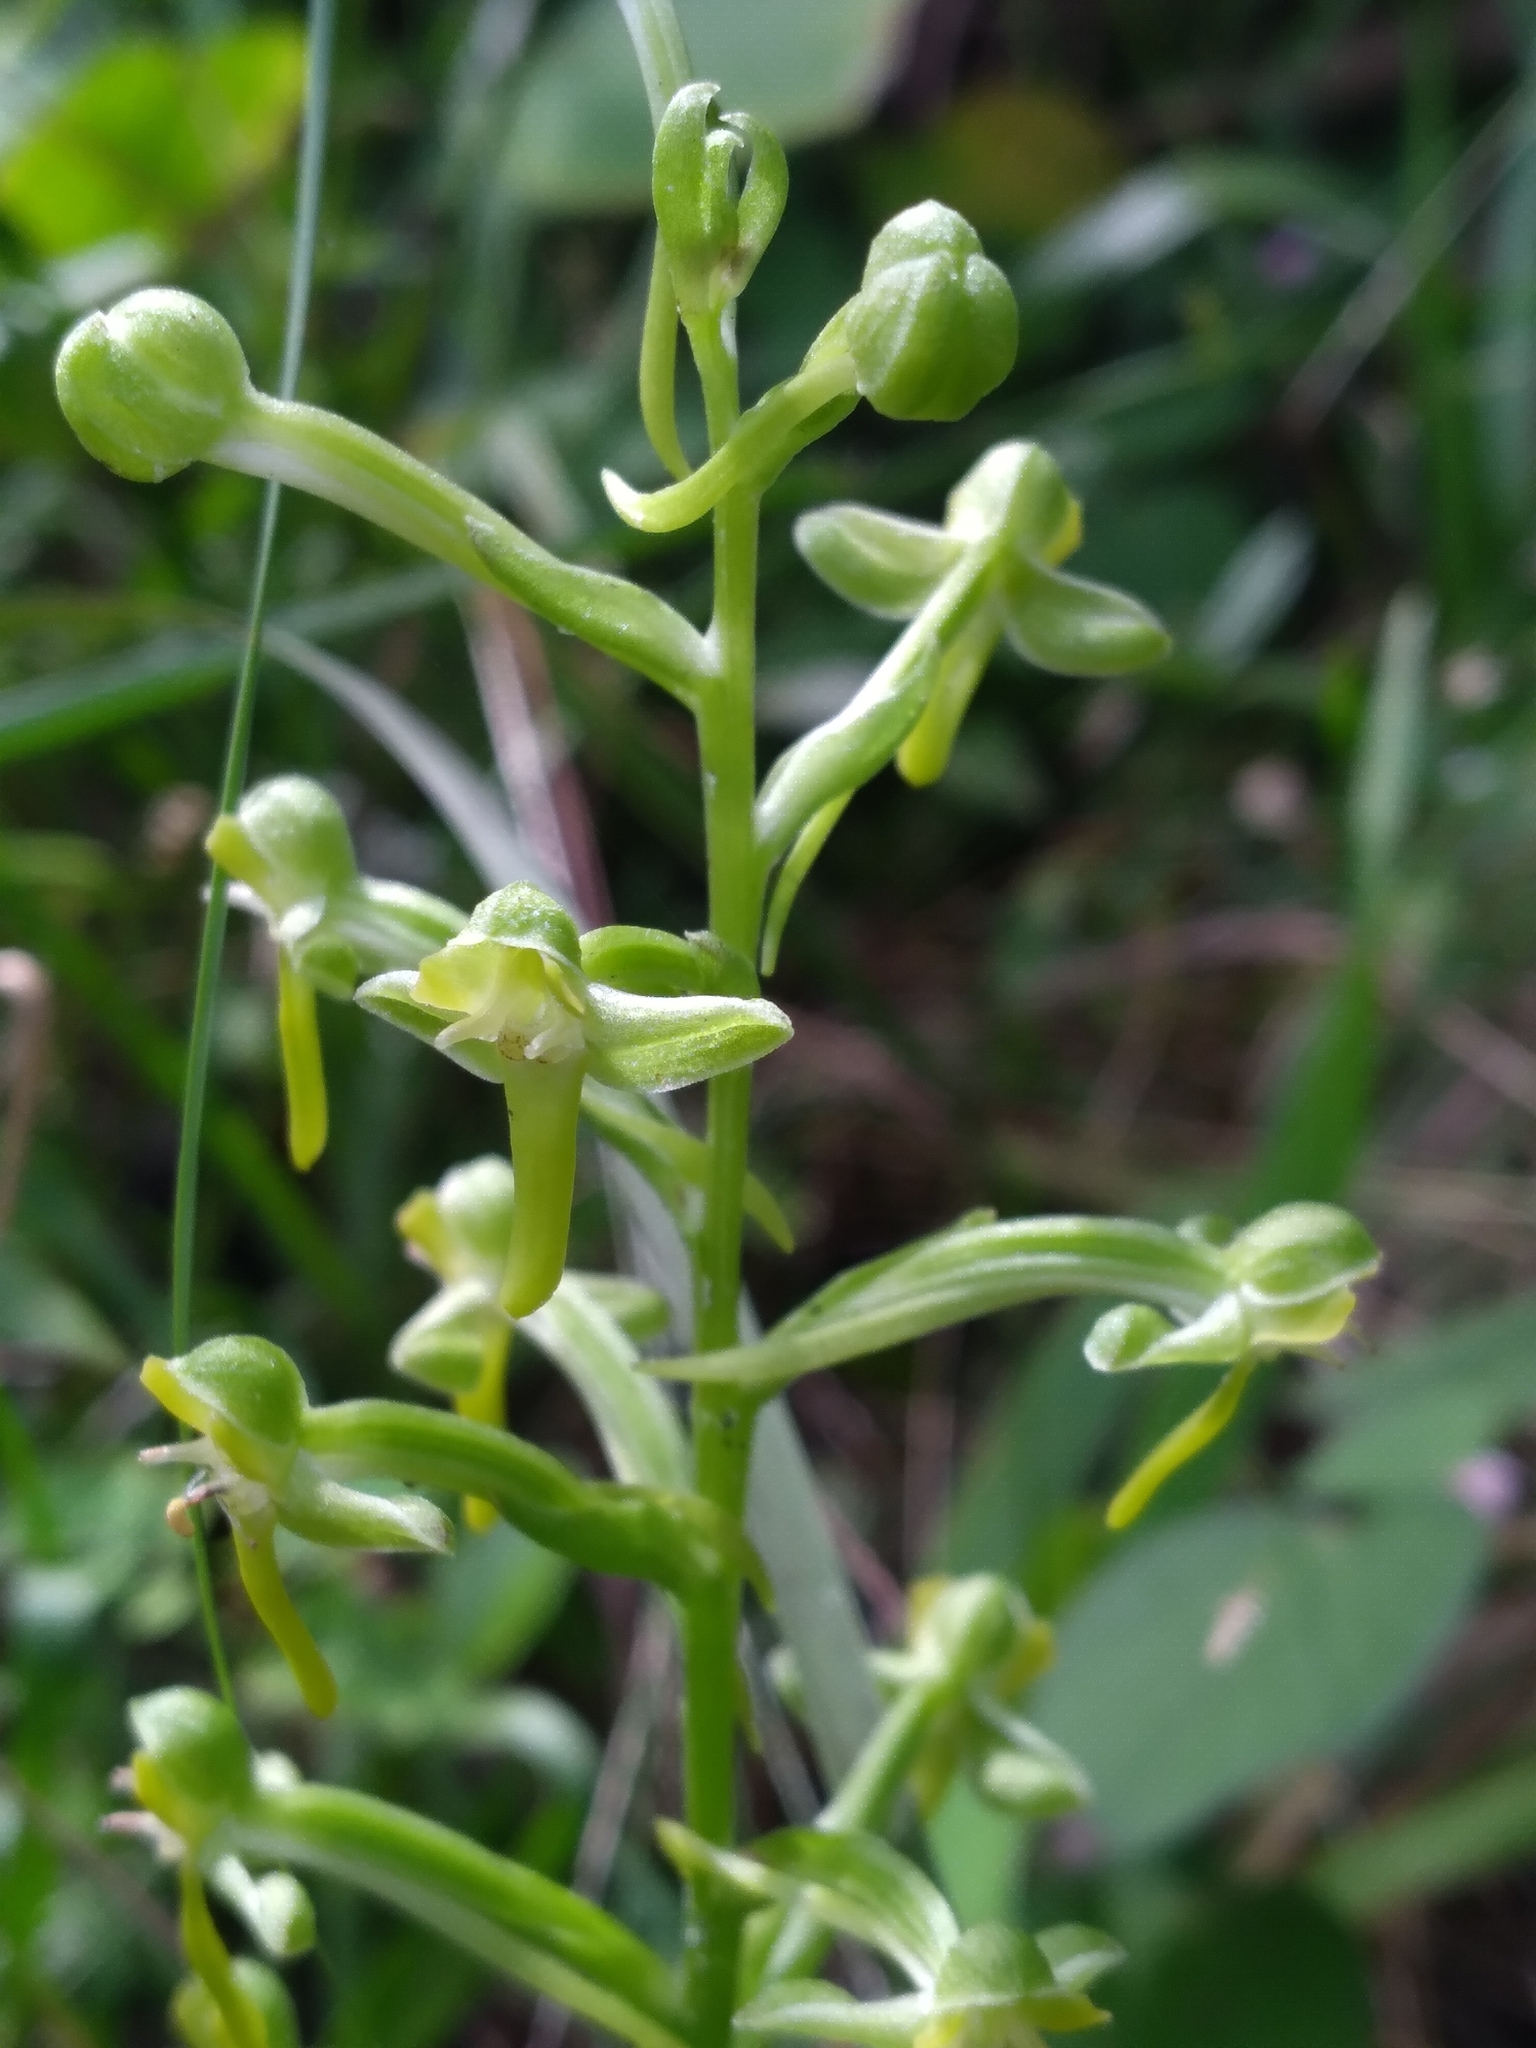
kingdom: Plantae
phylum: Tracheophyta
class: Liliopsida
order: Asparagales
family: Orchidaceae
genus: Habenaria
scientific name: Habenaria floribunda
